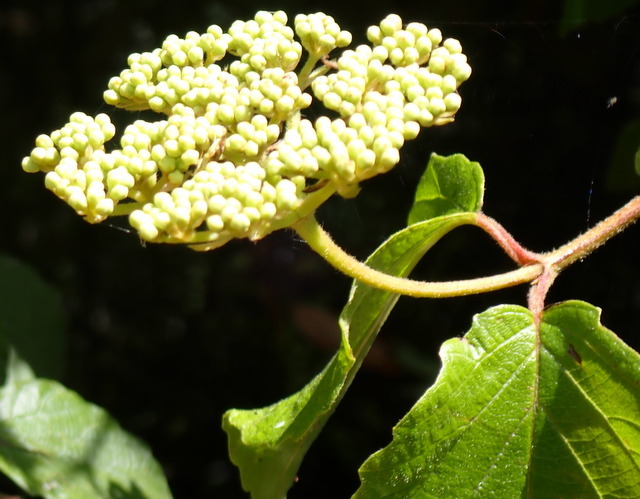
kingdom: Plantae
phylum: Tracheophyta
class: Magnoliopsida
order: Dipsacales
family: Viburnaceae
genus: Viburnum
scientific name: Viburnum scabrellum
